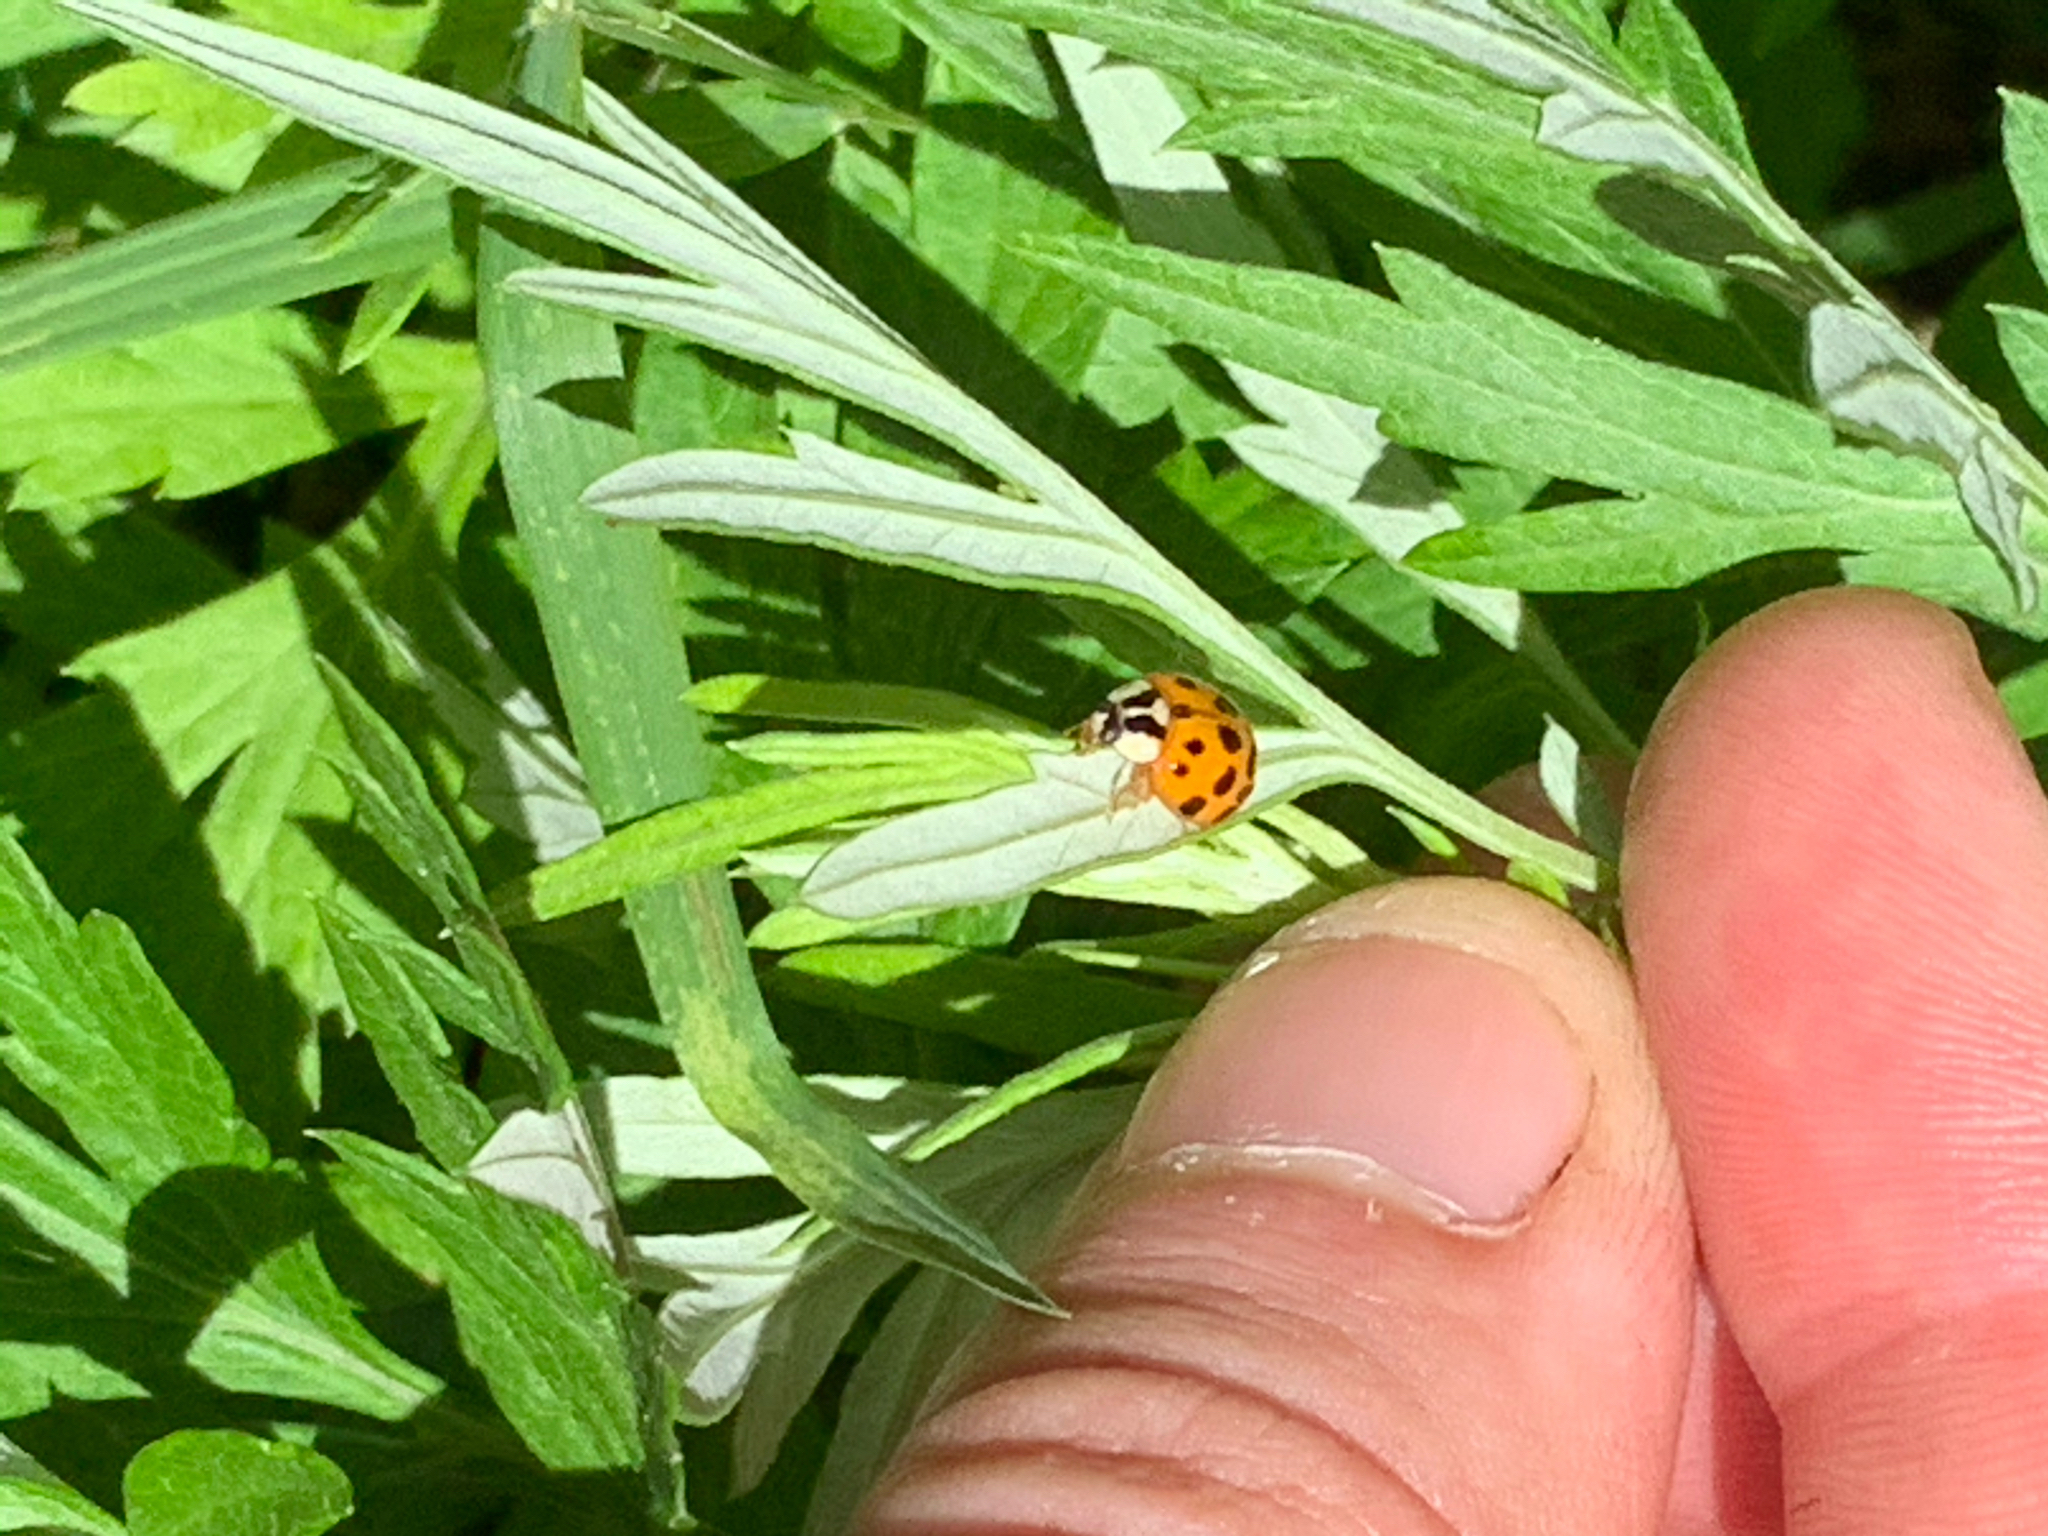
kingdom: Animalia
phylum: Arthropoda
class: Insecta
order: Coleoptera
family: Coccinellidae
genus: Harmonia
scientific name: Harmonia axyridis
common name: Harlequin ladybird
